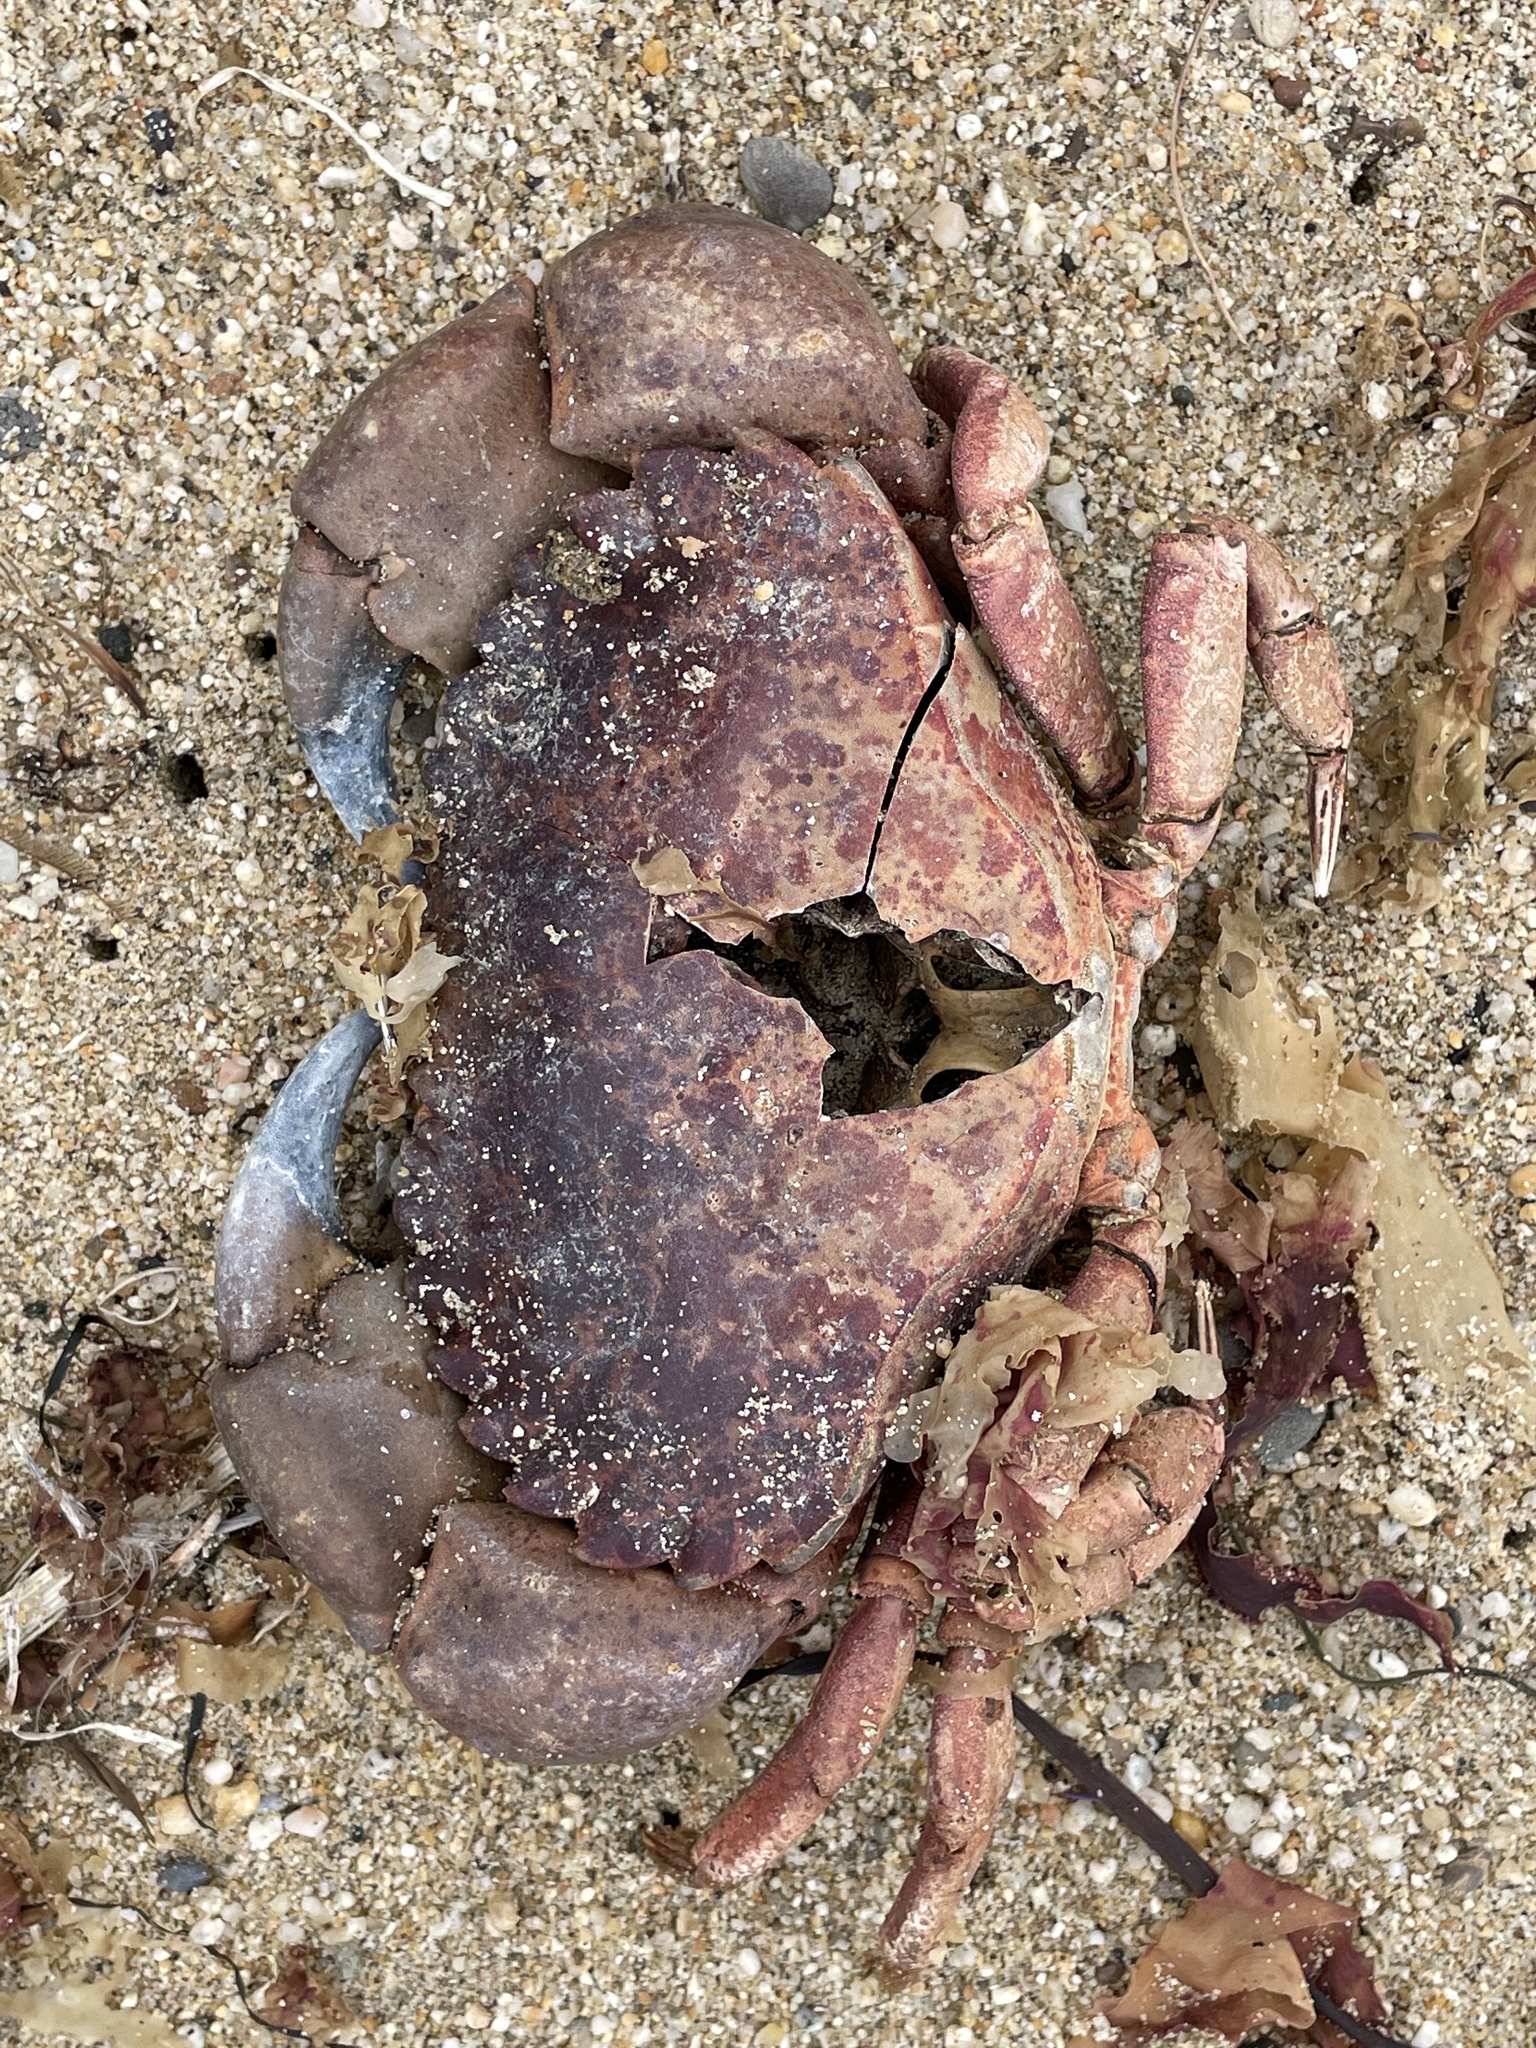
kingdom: Animalia
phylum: Arthropoda
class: Malacostraca
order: Decapoda
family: Cancridae
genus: Romaleon
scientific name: Romaleon antennarium
